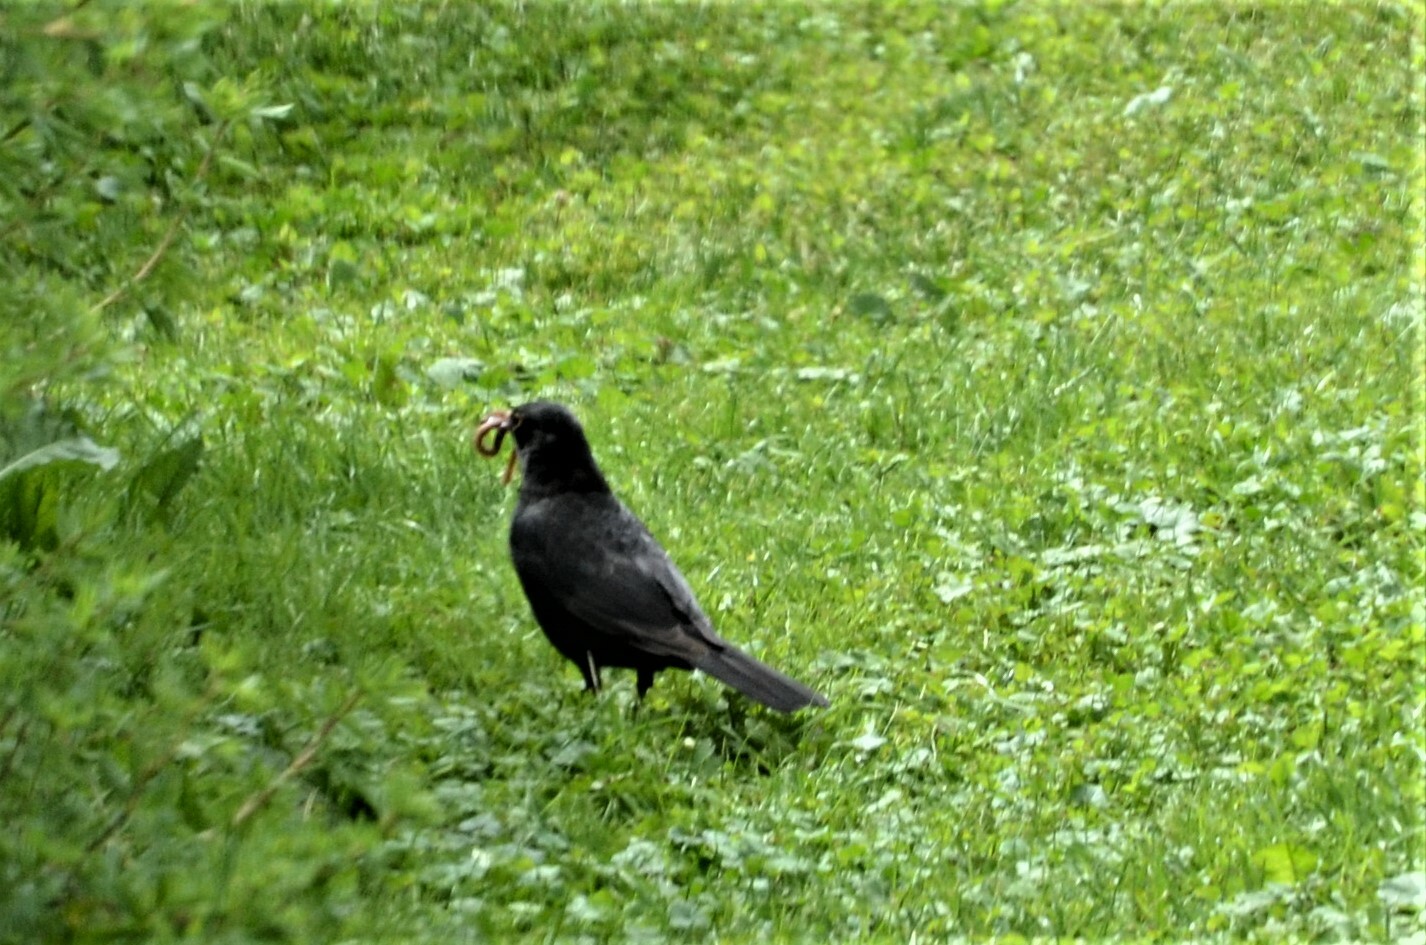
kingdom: Animalia
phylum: Chordata
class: Aves
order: Passeriformes
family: Turdidae
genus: Turdus
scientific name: Turdus merula
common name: Common blackbird
